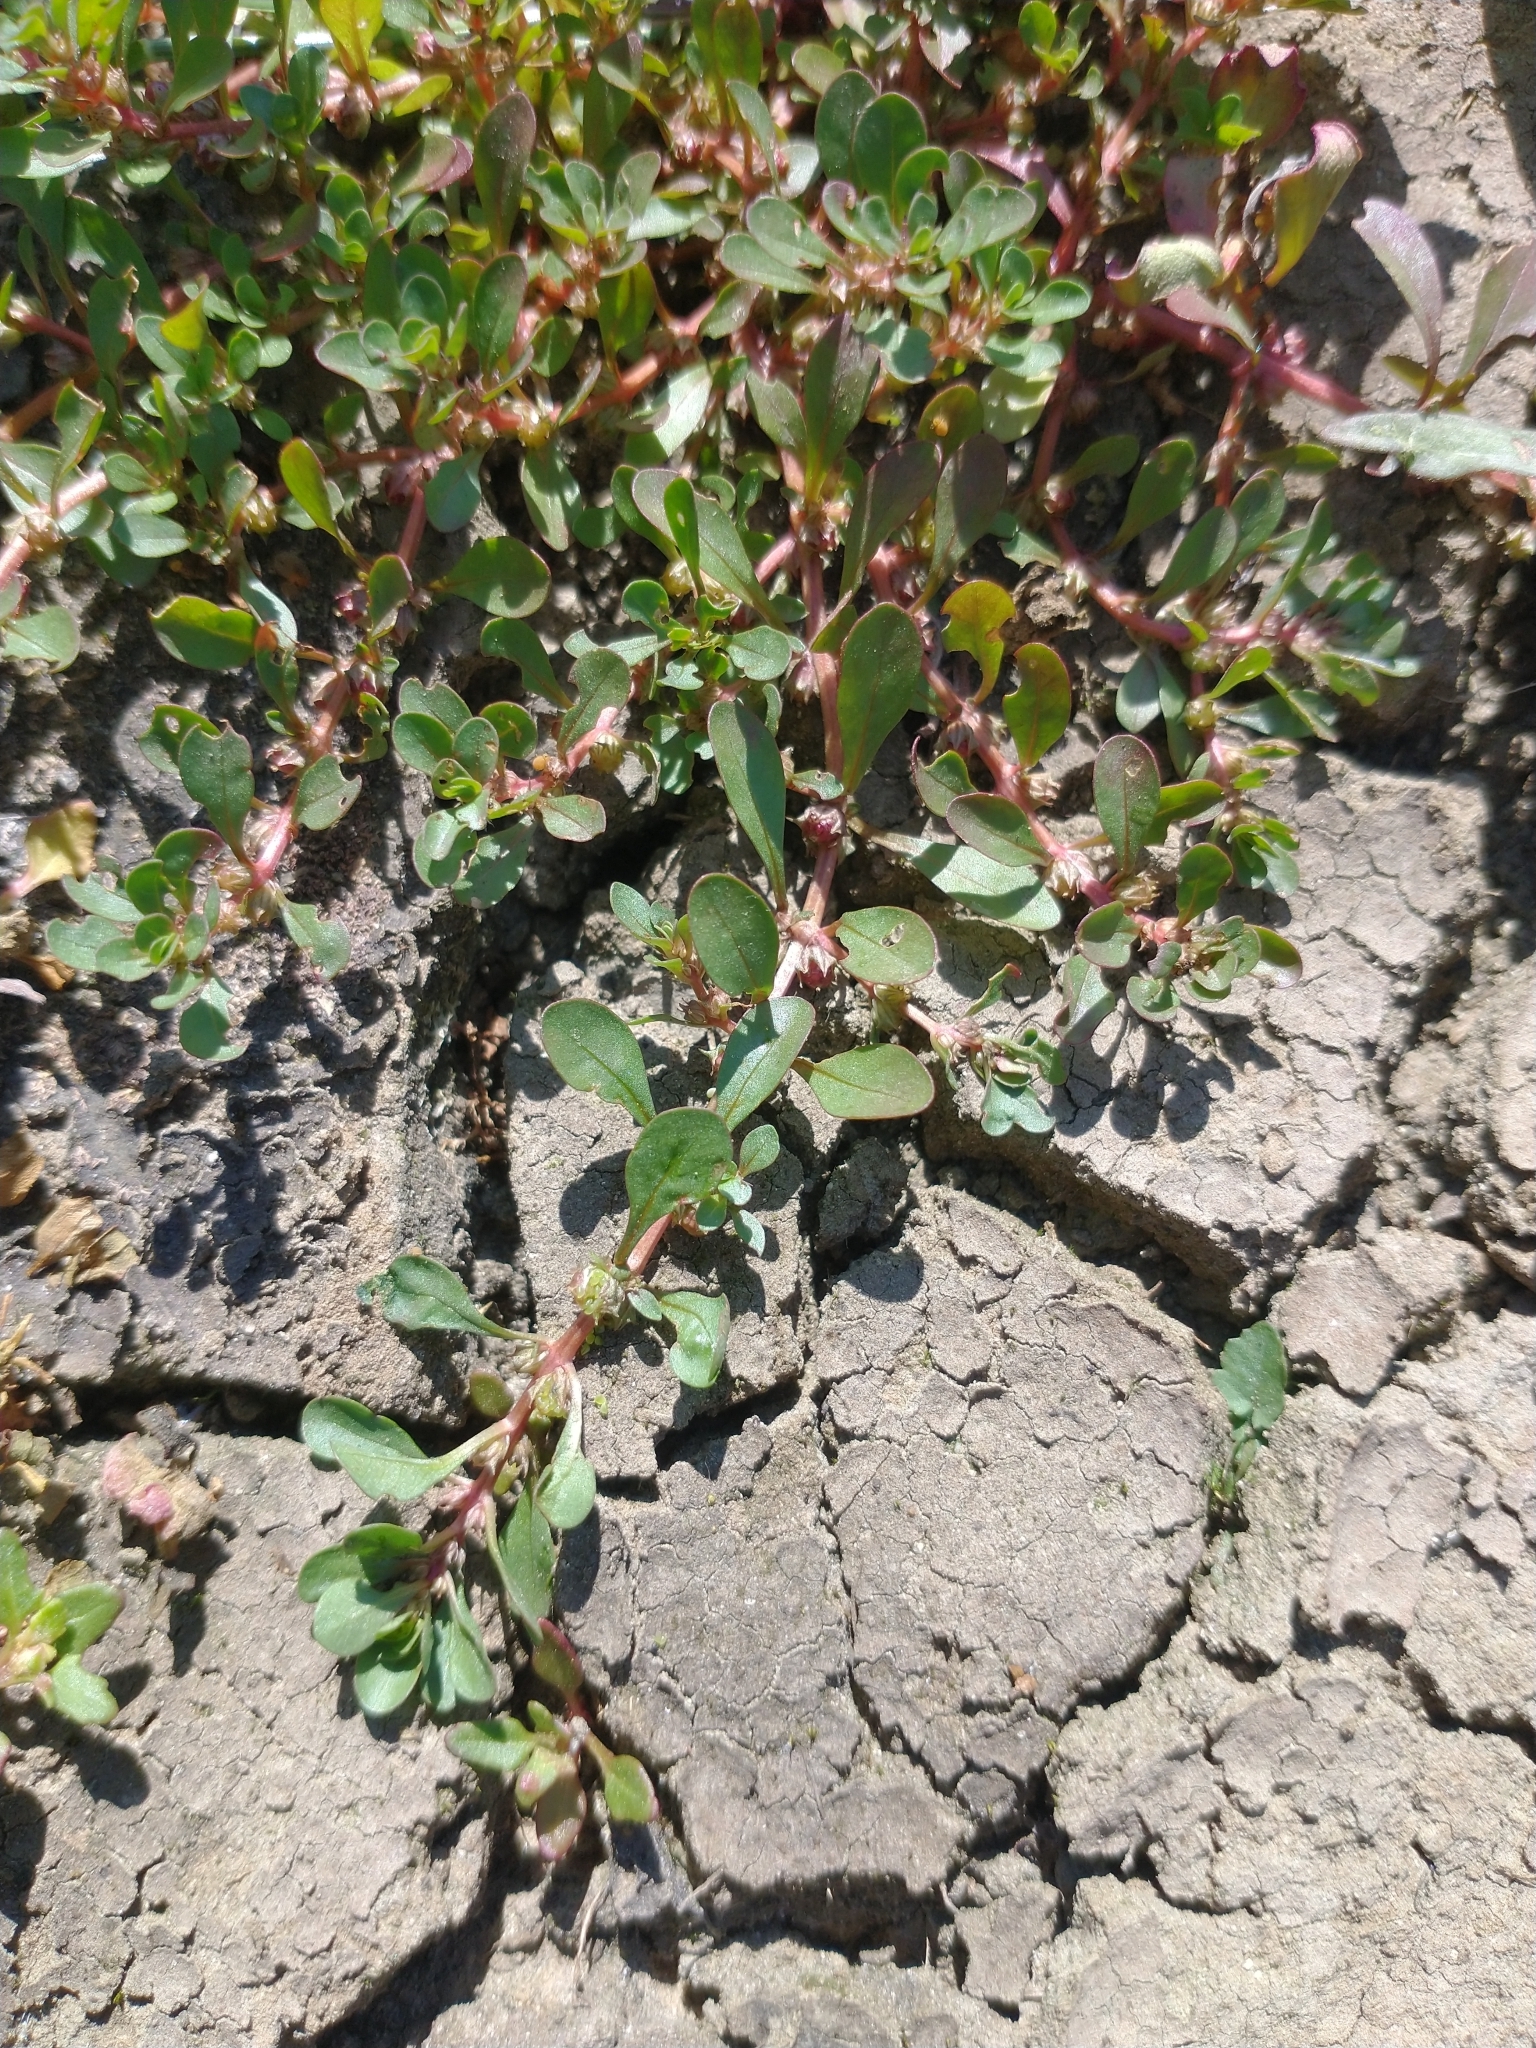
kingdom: Plantae
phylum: Tracheophyta
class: Magnoliopsida
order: Myrtales
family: Lythraceae
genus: Lythrum
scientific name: Lythrum portula
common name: Water purslane
